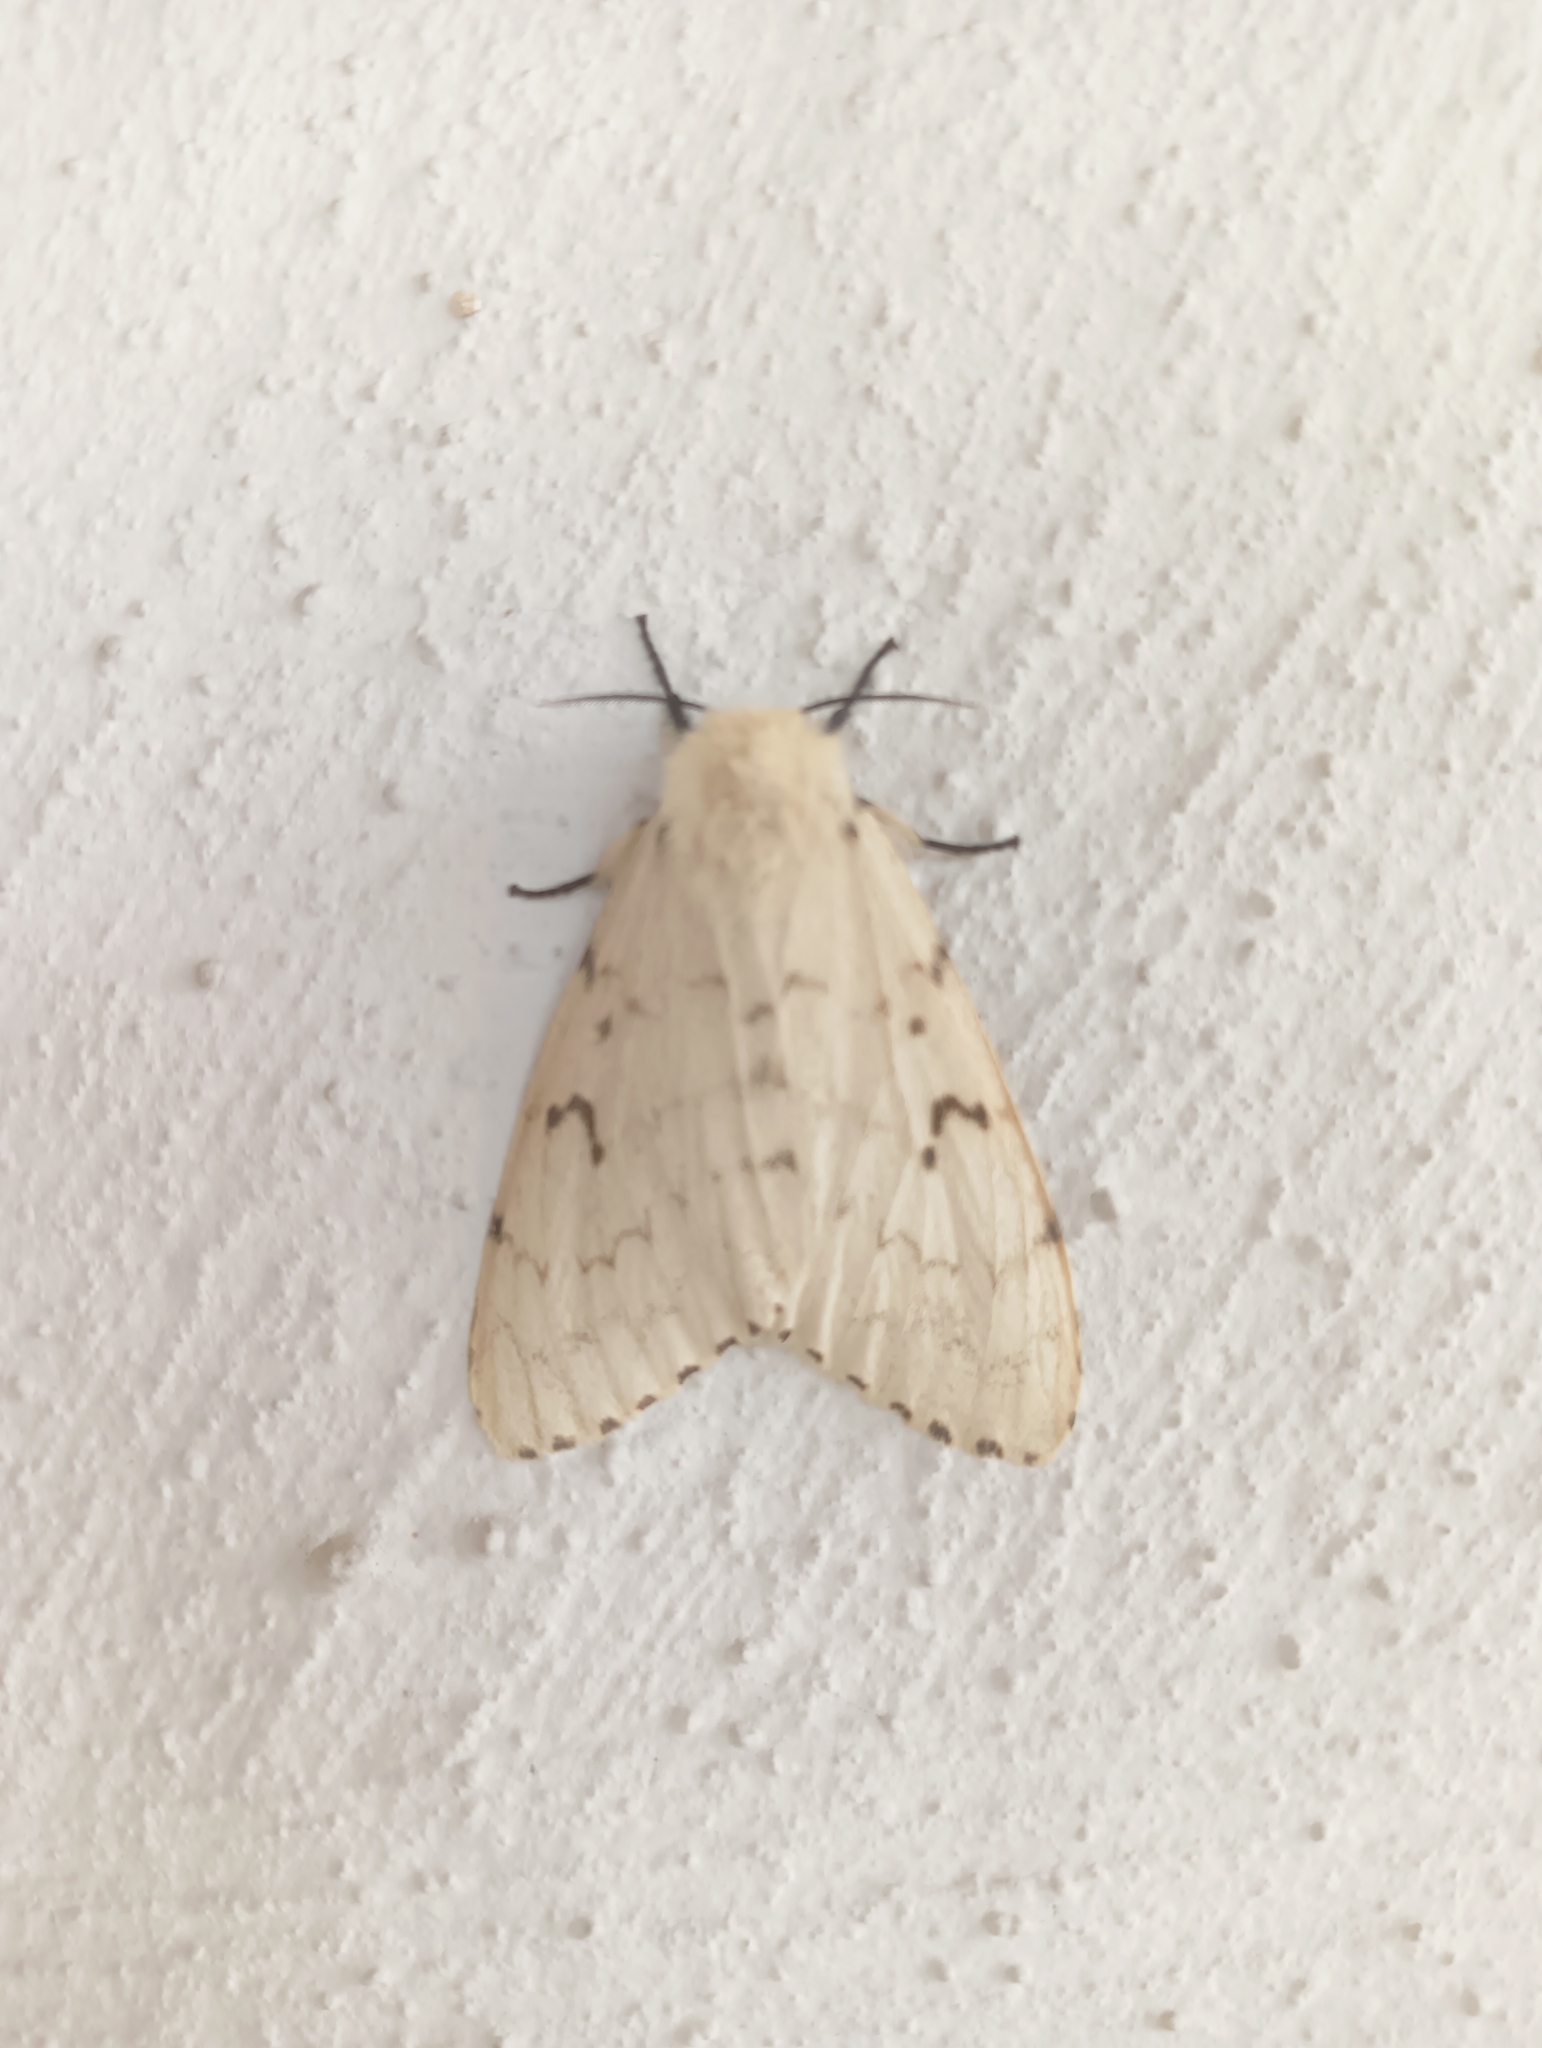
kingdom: Animalia
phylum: Arthropoda
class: Insecta
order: Lepidoptera
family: Erebidae
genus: Lymantria
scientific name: Lymantria dispar
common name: Gypsy moth
